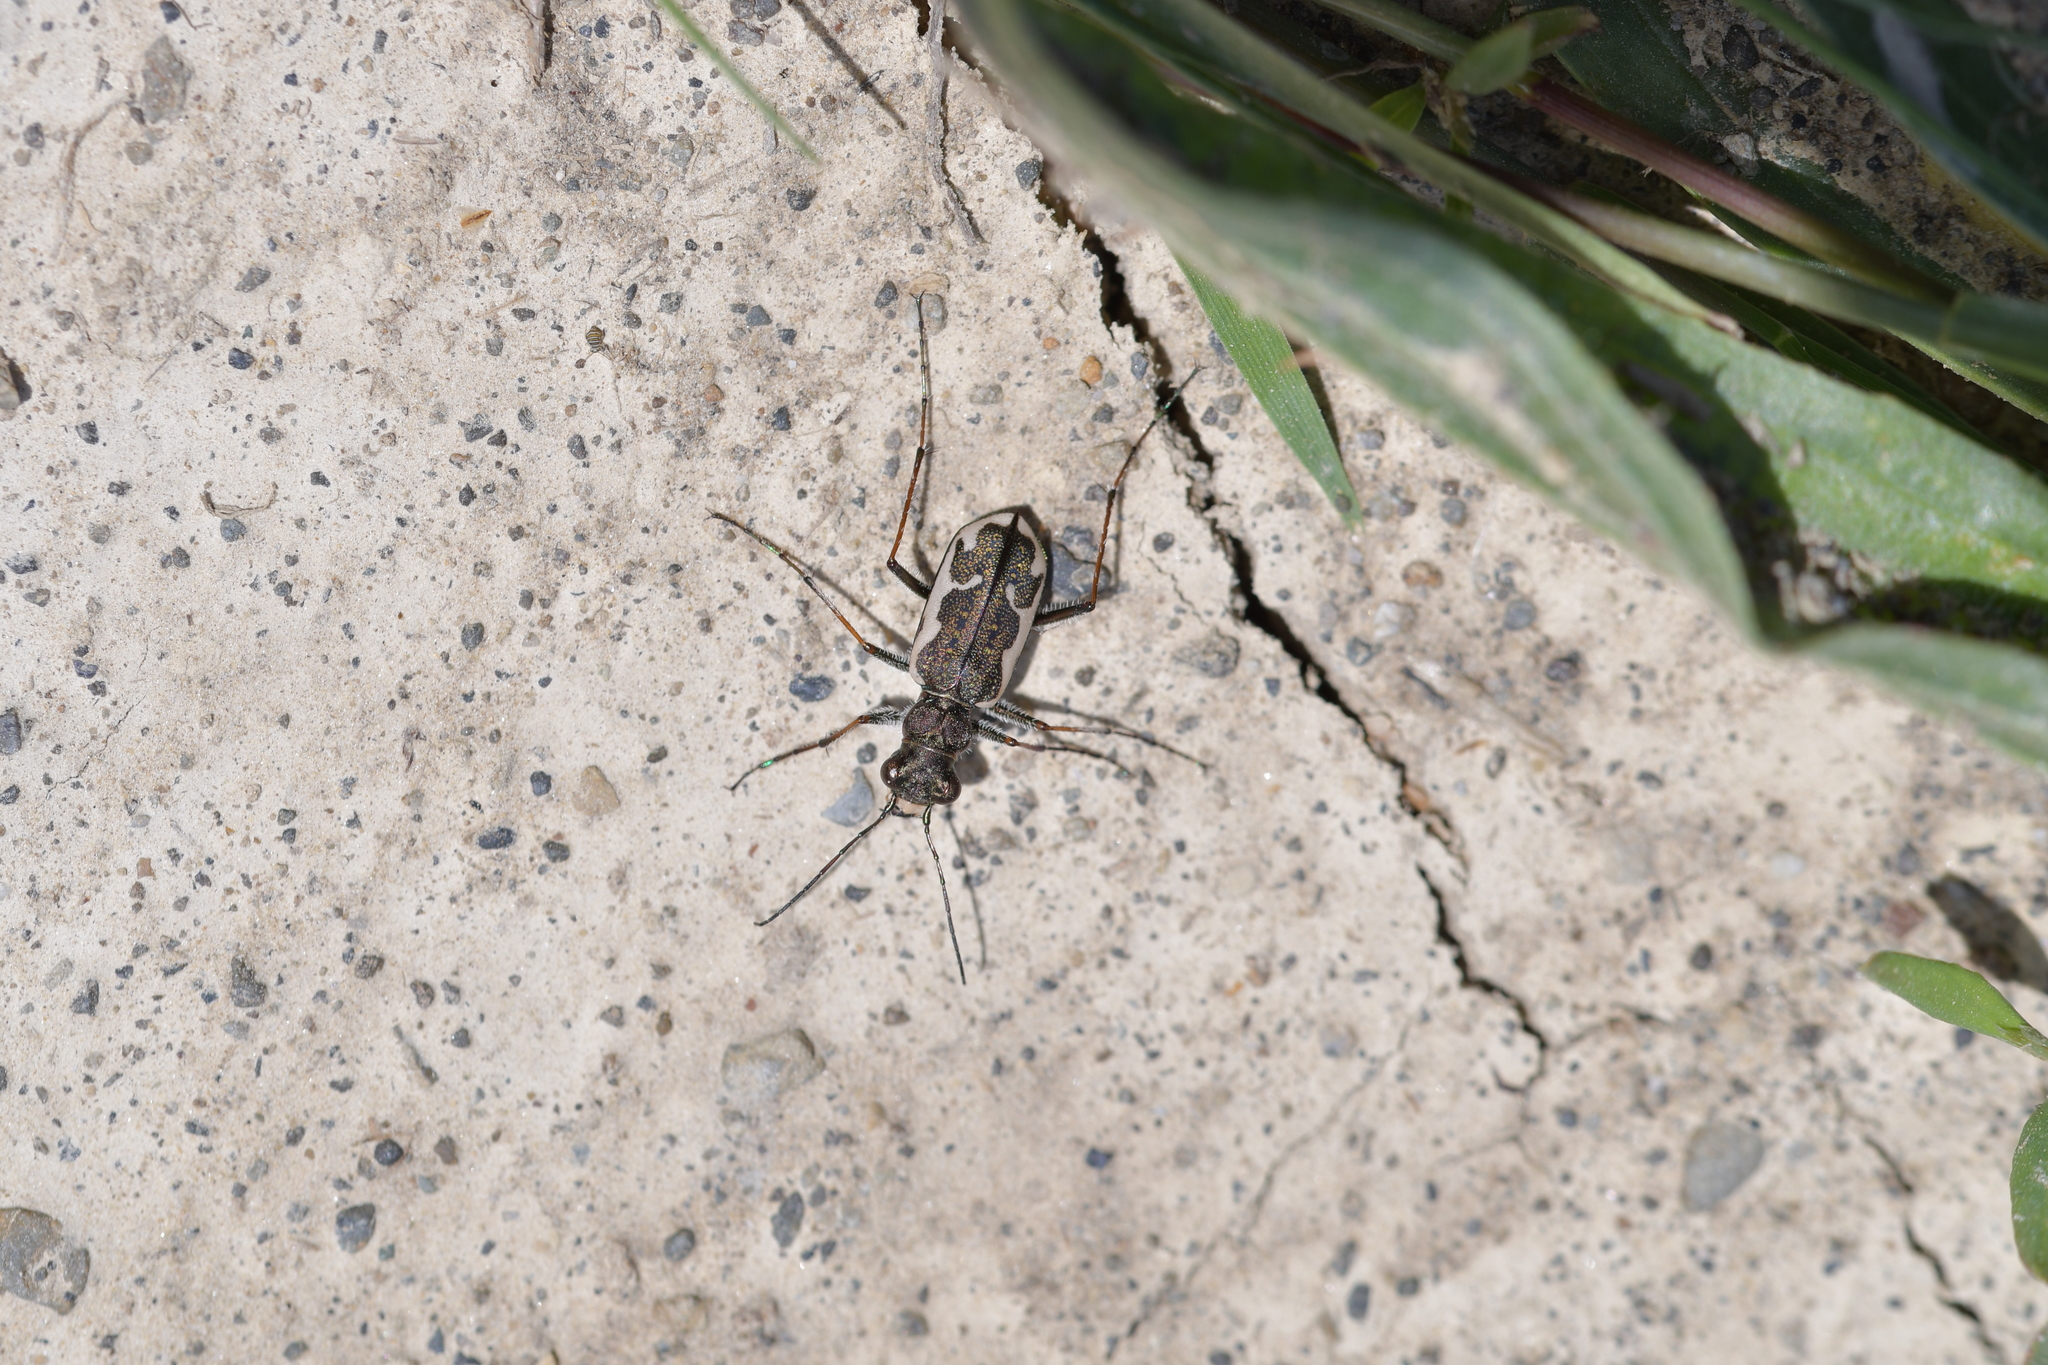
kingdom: Animalia
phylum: Arthropoda
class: Insecta
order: Coleoptera
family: Carabidae
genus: Neocicindela
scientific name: Neocicindela tuberculata
